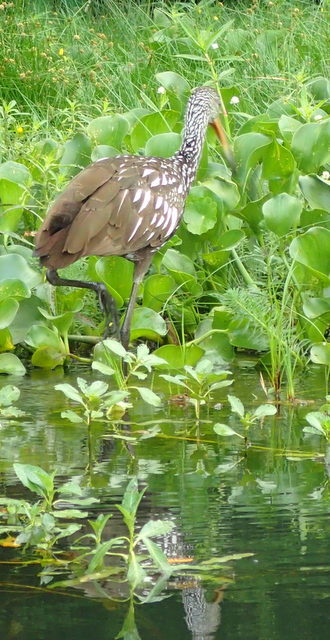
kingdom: Animalia
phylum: Chordata
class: Aves
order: Gruiformes
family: Aramidae
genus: Aramus
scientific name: Aramus guarauna
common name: Limpkin
